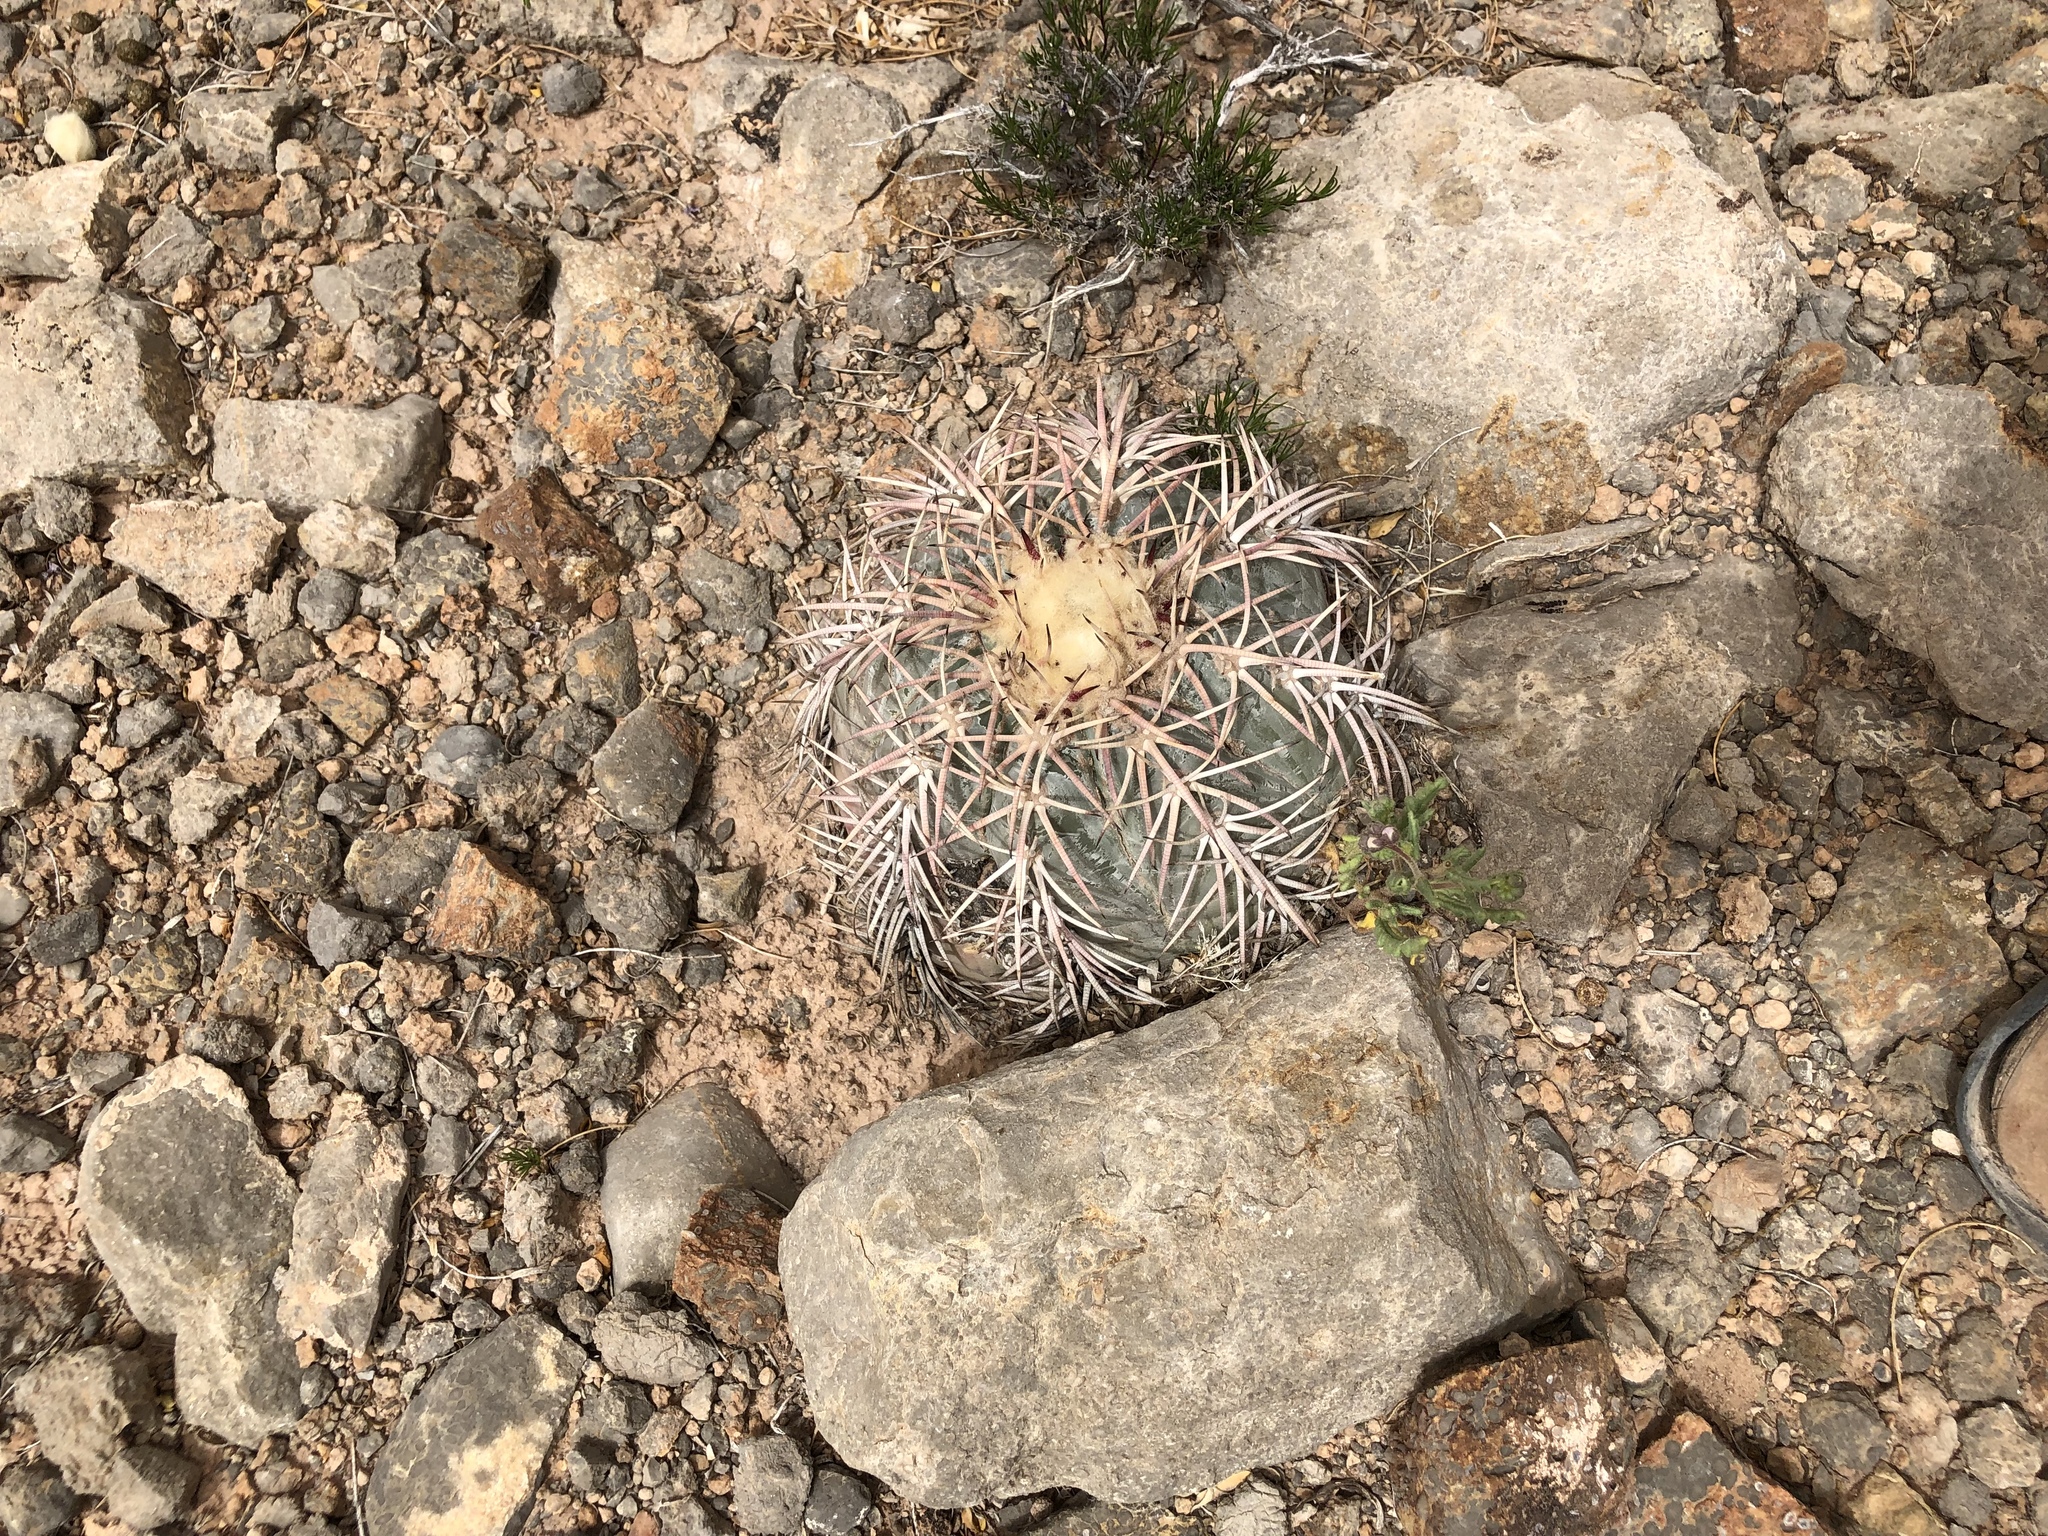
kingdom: Plantae
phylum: Tracheophyta
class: Magnoliopsida
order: Caryophyllales
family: Cactaceae
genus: Echinocactus
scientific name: Echinocactus horizonthalonius
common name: Devilshead
